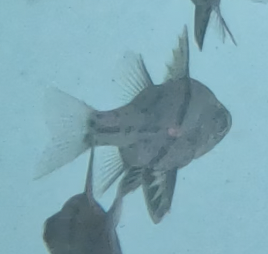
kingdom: Animalia
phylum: Chordata
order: Perciformes
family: Apogonidae
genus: Sphaeramia
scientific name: Sphaeramia orbicularis
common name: Polka-dot cardinalfish
